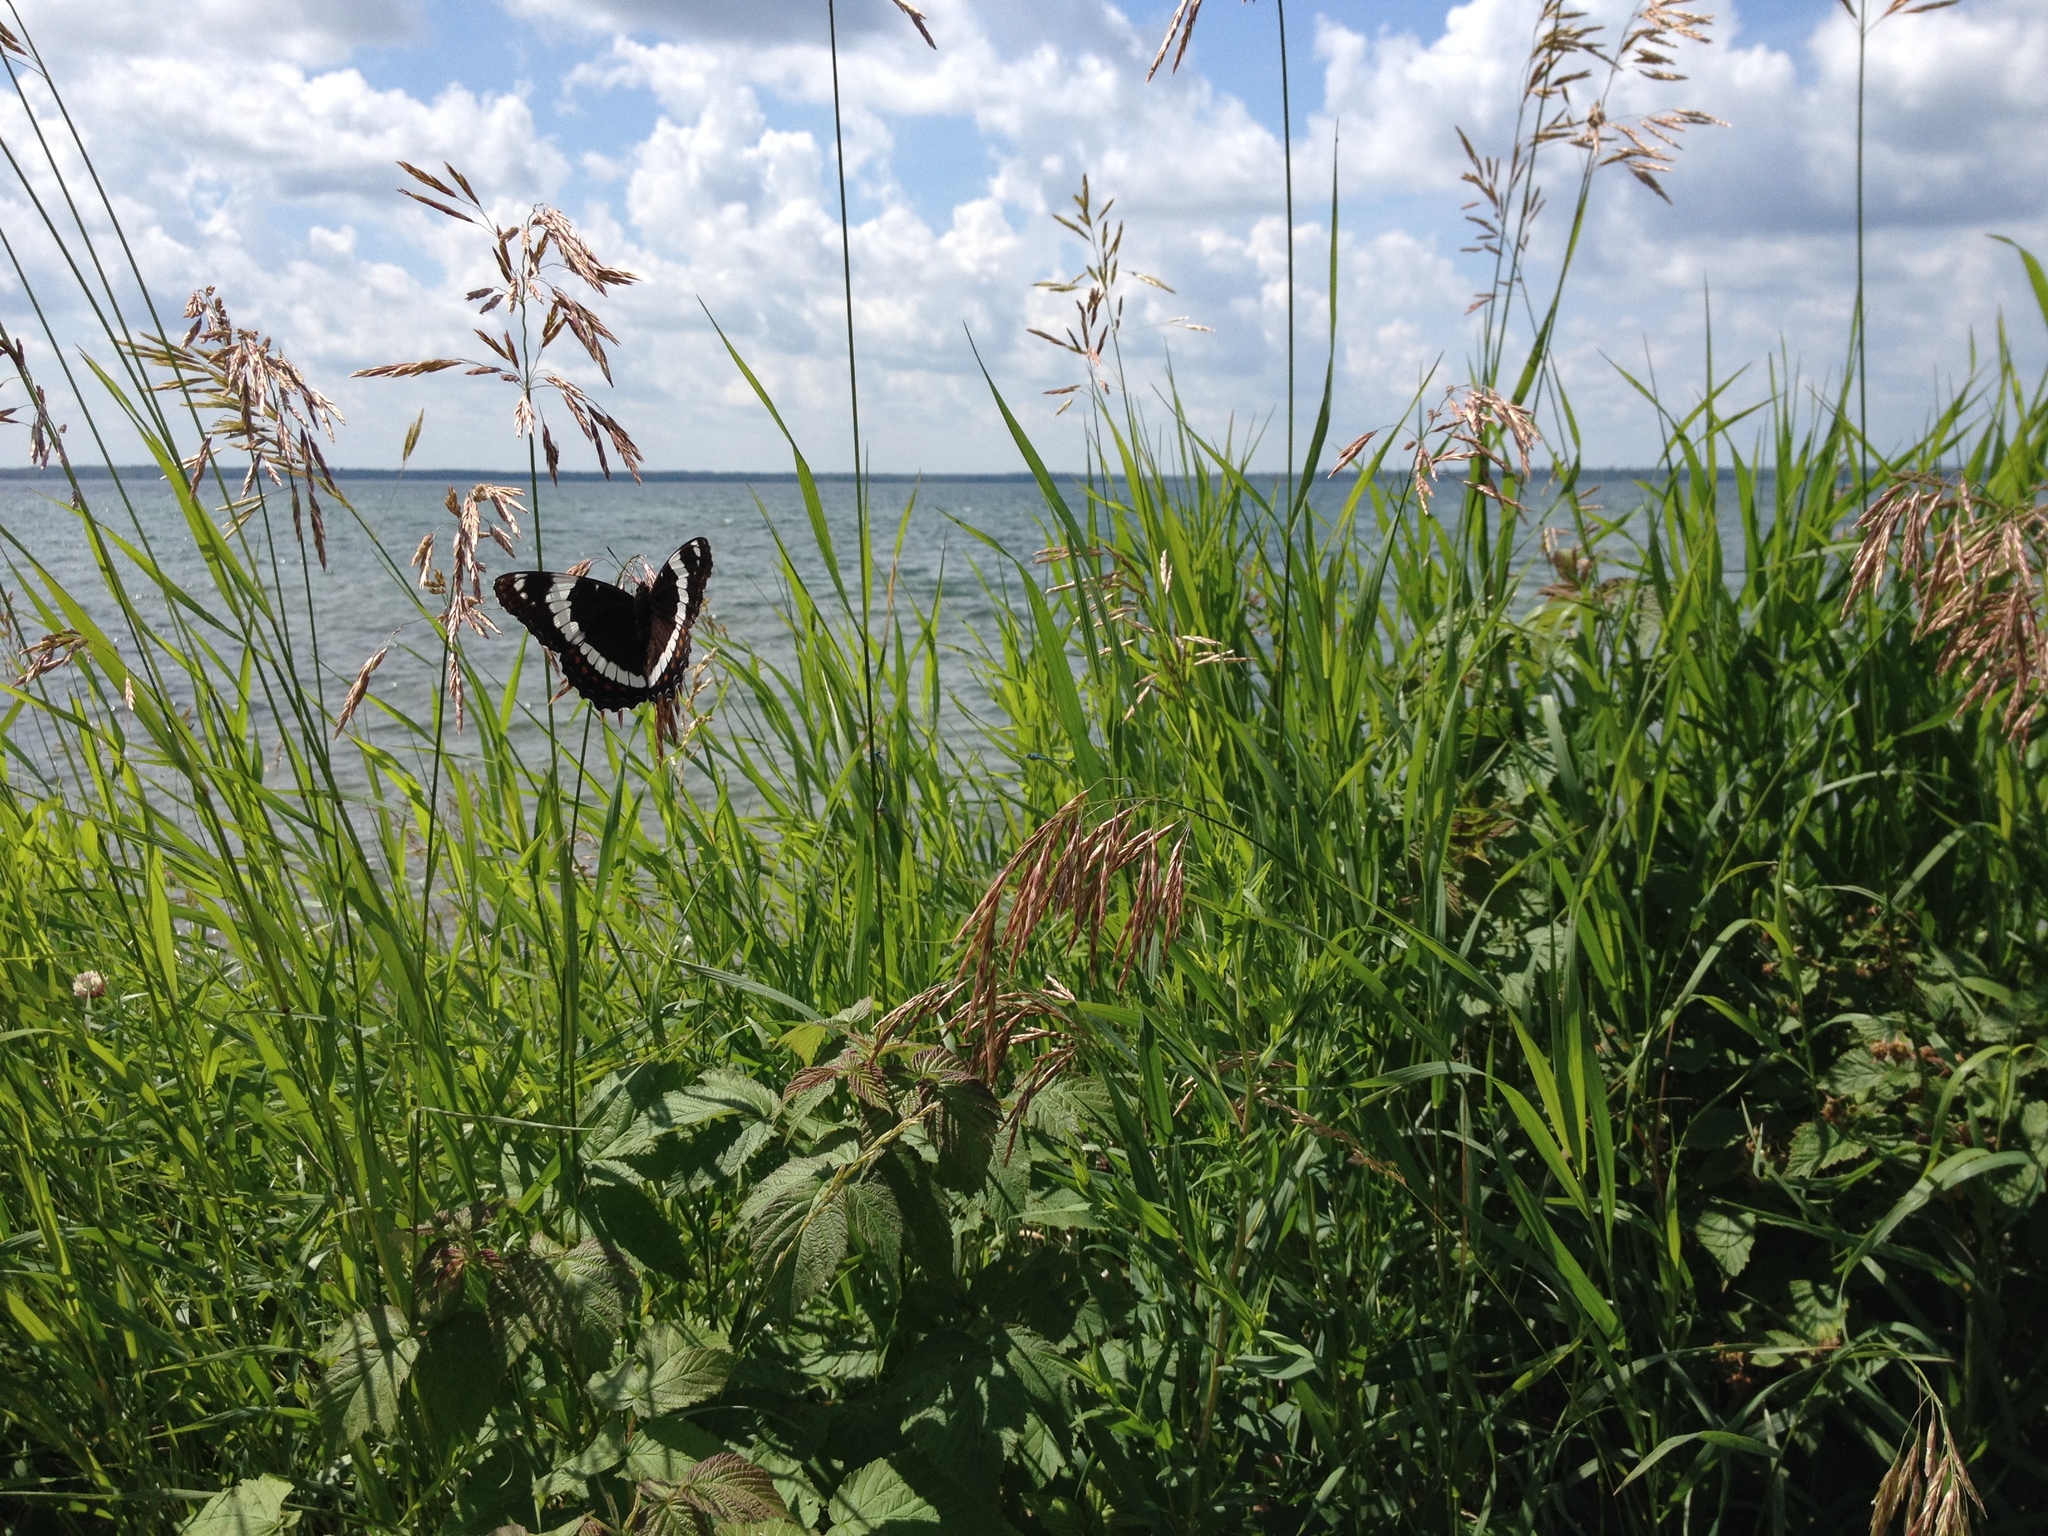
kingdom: Animalia
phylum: Arthropoda
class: Insecta
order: Lepidoptera
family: Nymphalidae
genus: Limenitis
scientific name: Limenitis arthemis
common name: Red-spotted admiral
